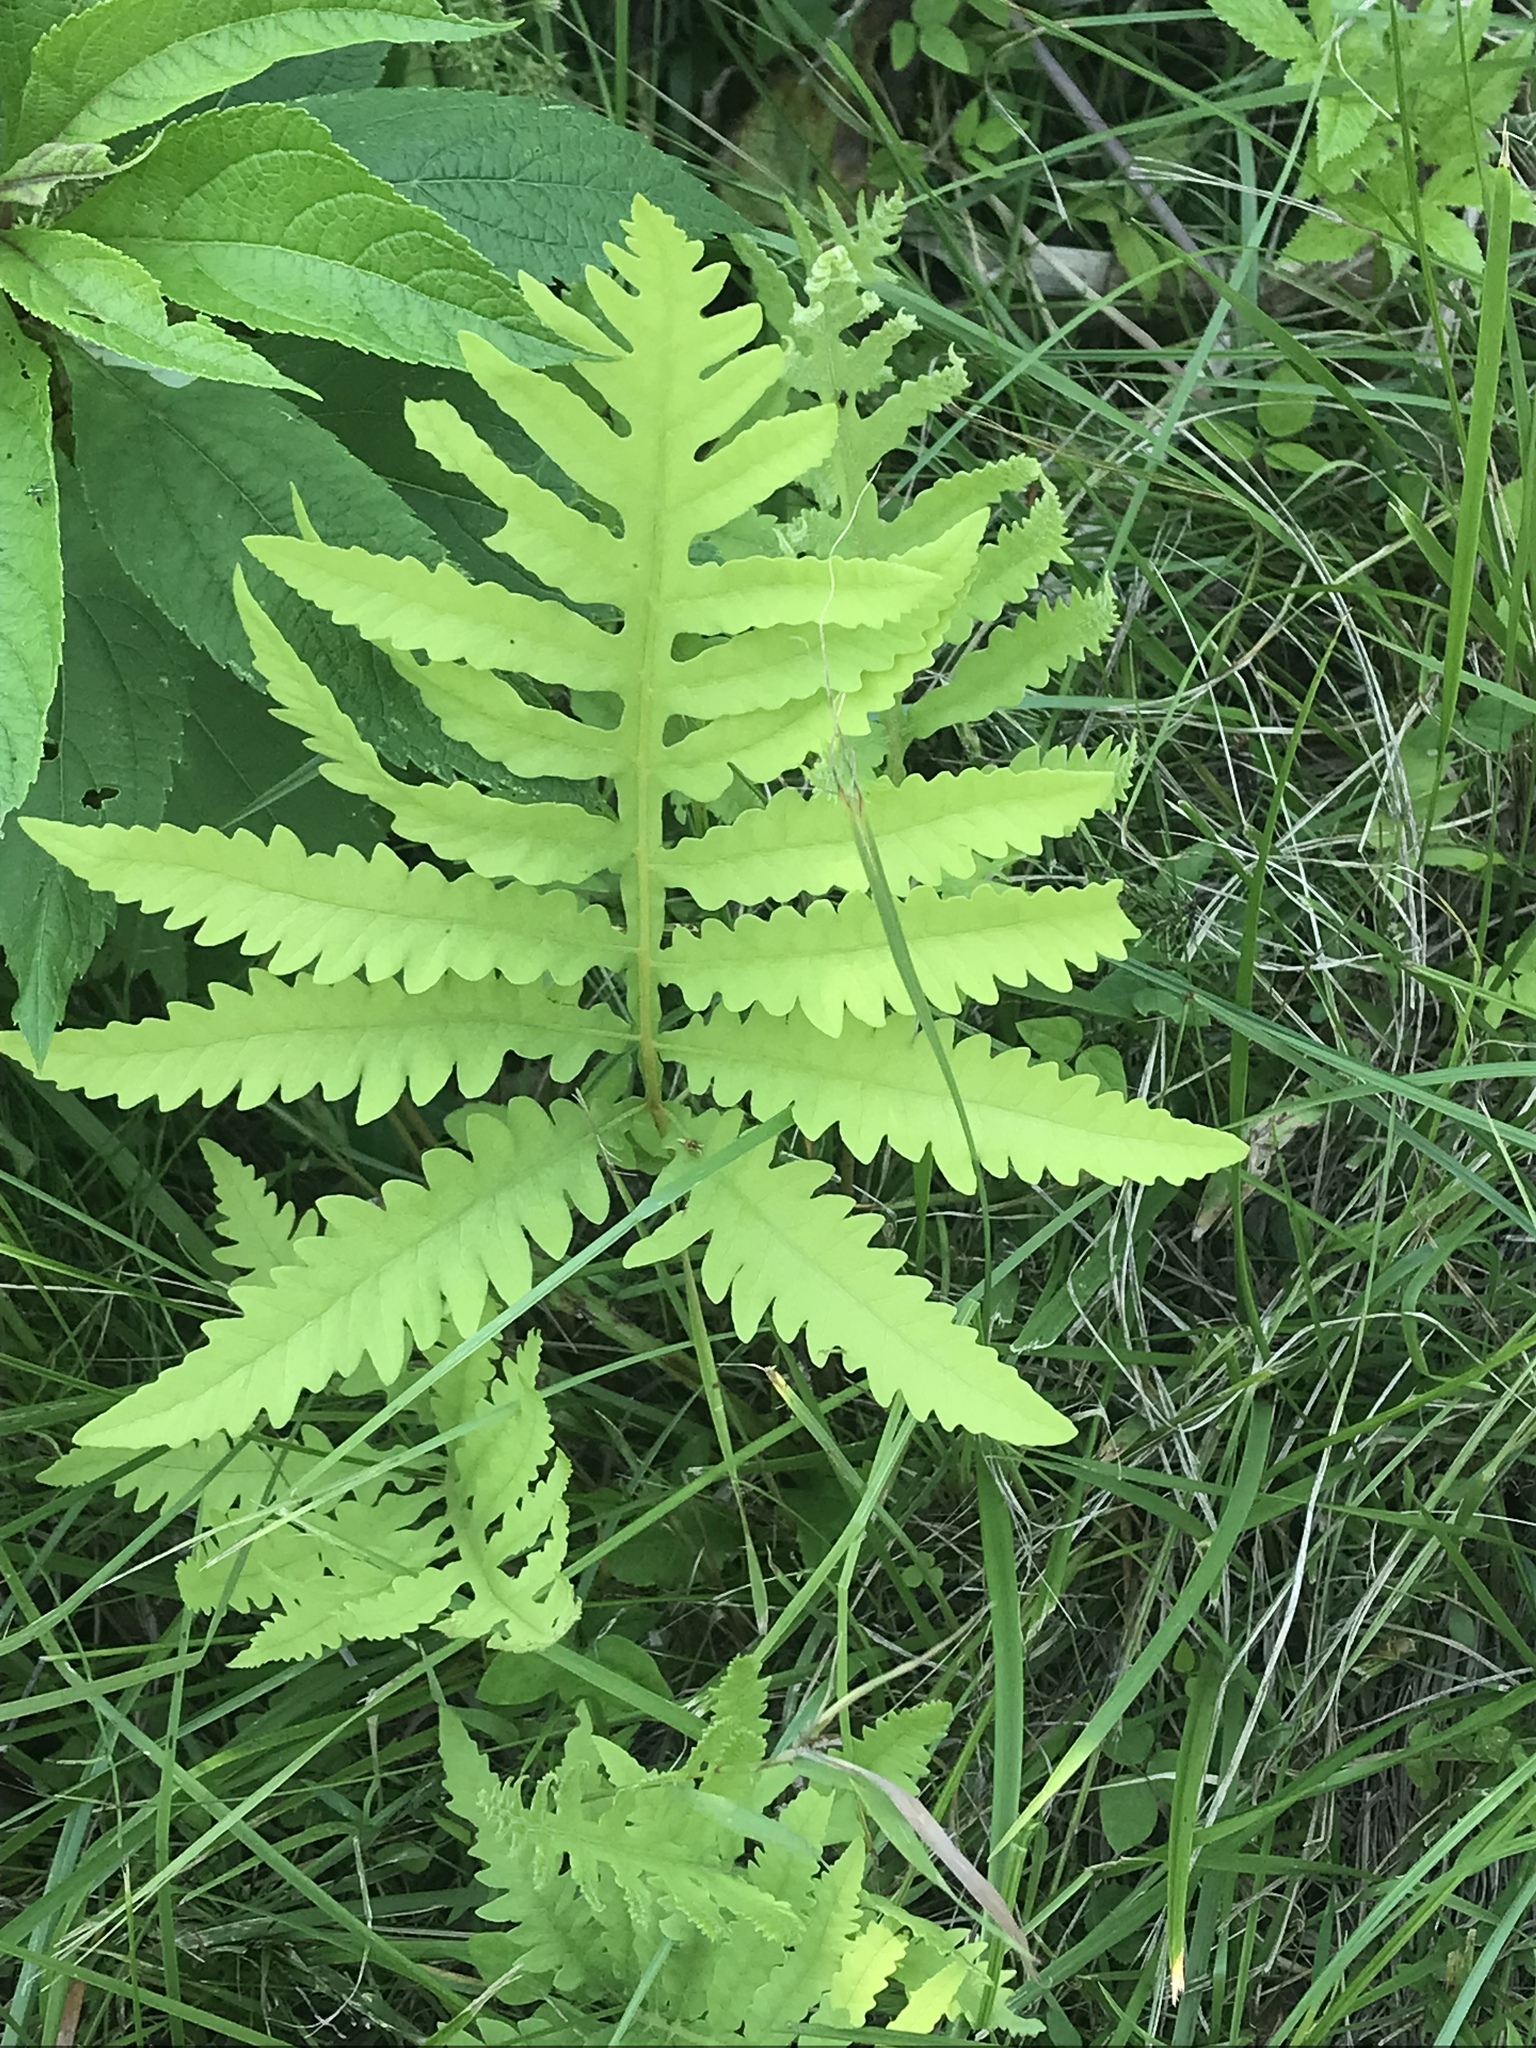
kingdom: Plantae
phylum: Tracheophyta
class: Polypodiopsida
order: Polypodiales
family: Onocleaceae
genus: Onoclea
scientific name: Onoclea sensibilis
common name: Sensitive fern
